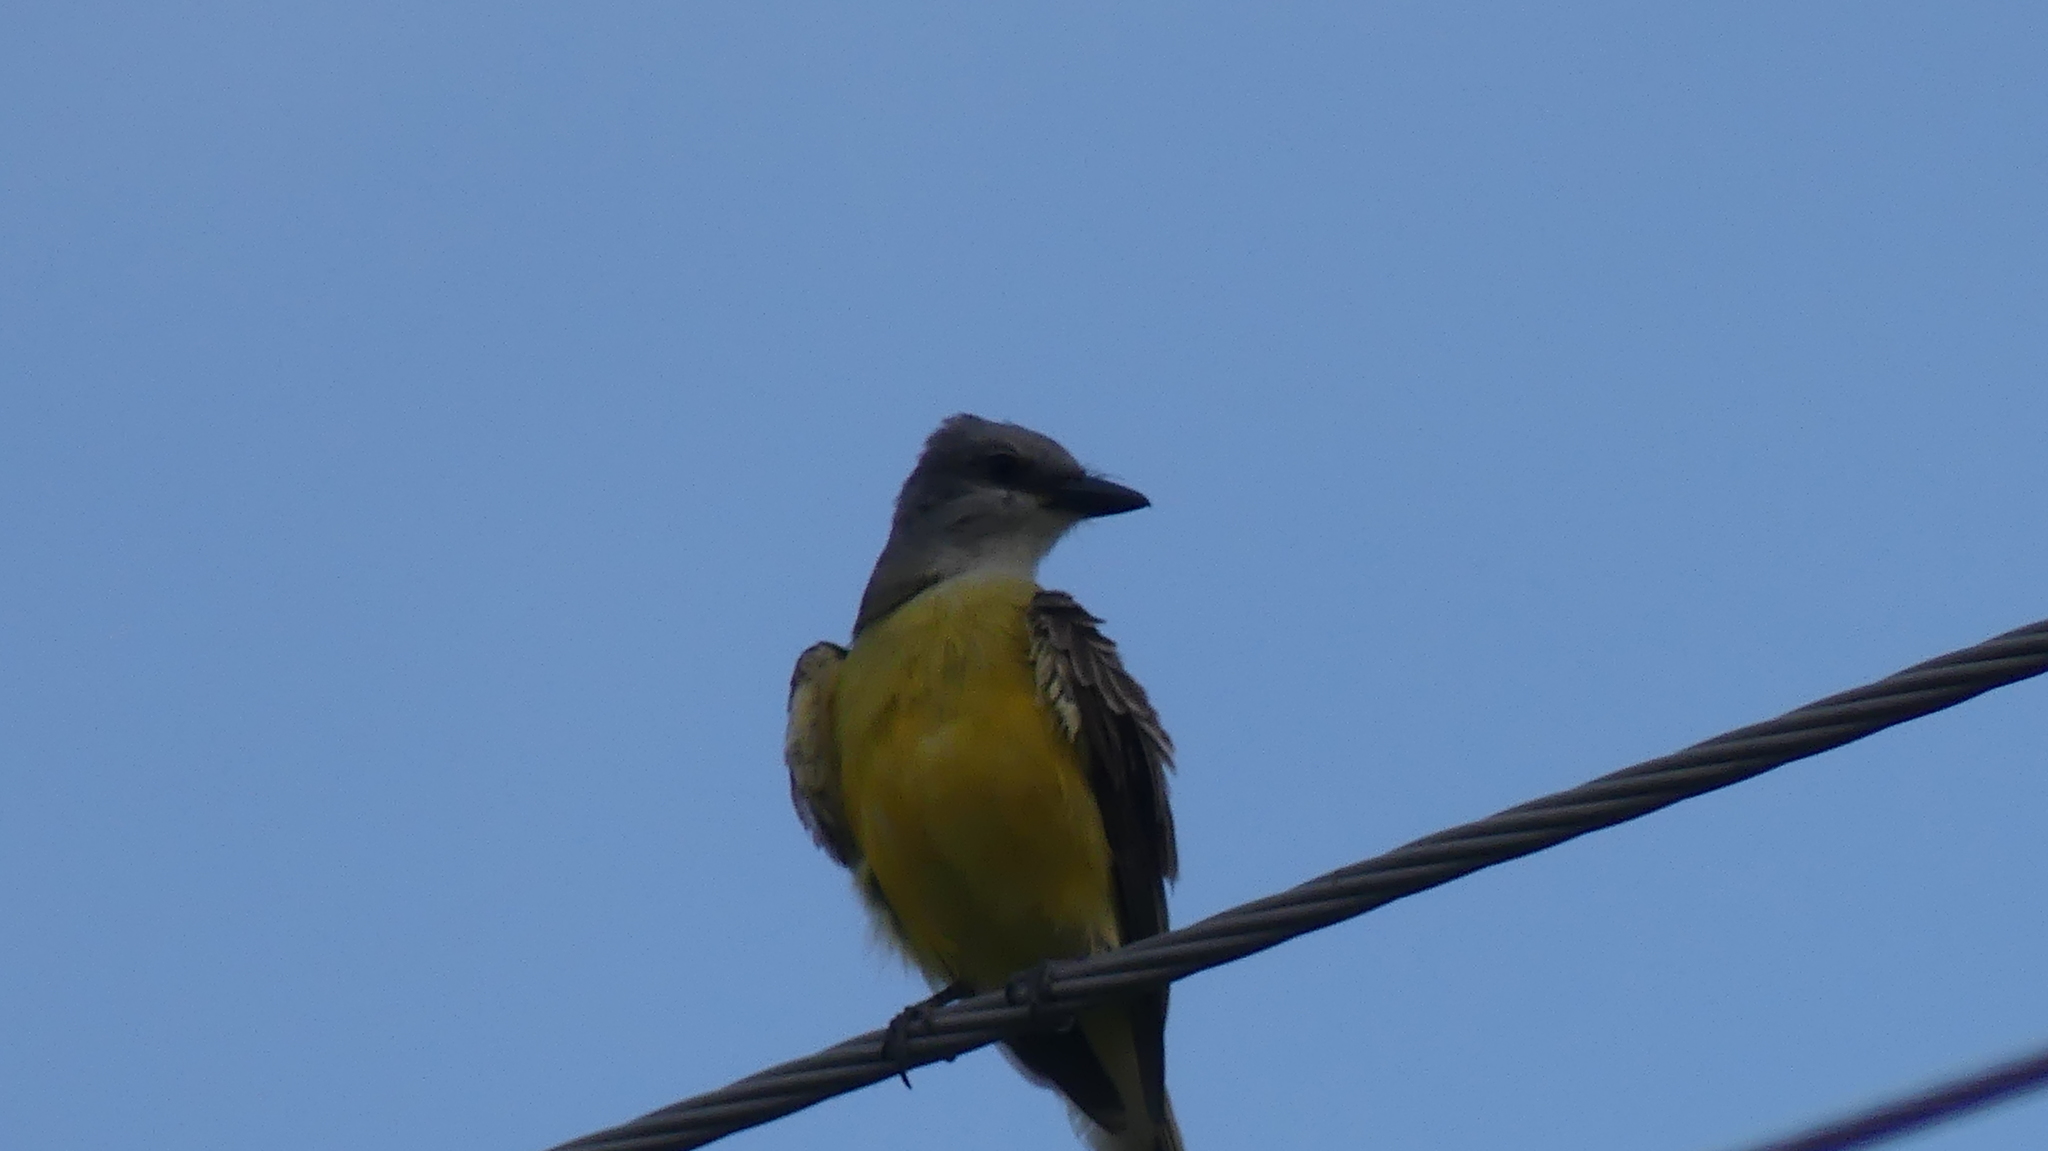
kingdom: Animalia
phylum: Chordata
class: Aves
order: Passeriformes
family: Tyrannidae
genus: Tyrannus
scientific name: Tyrannus verticalis
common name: Western kingbird
